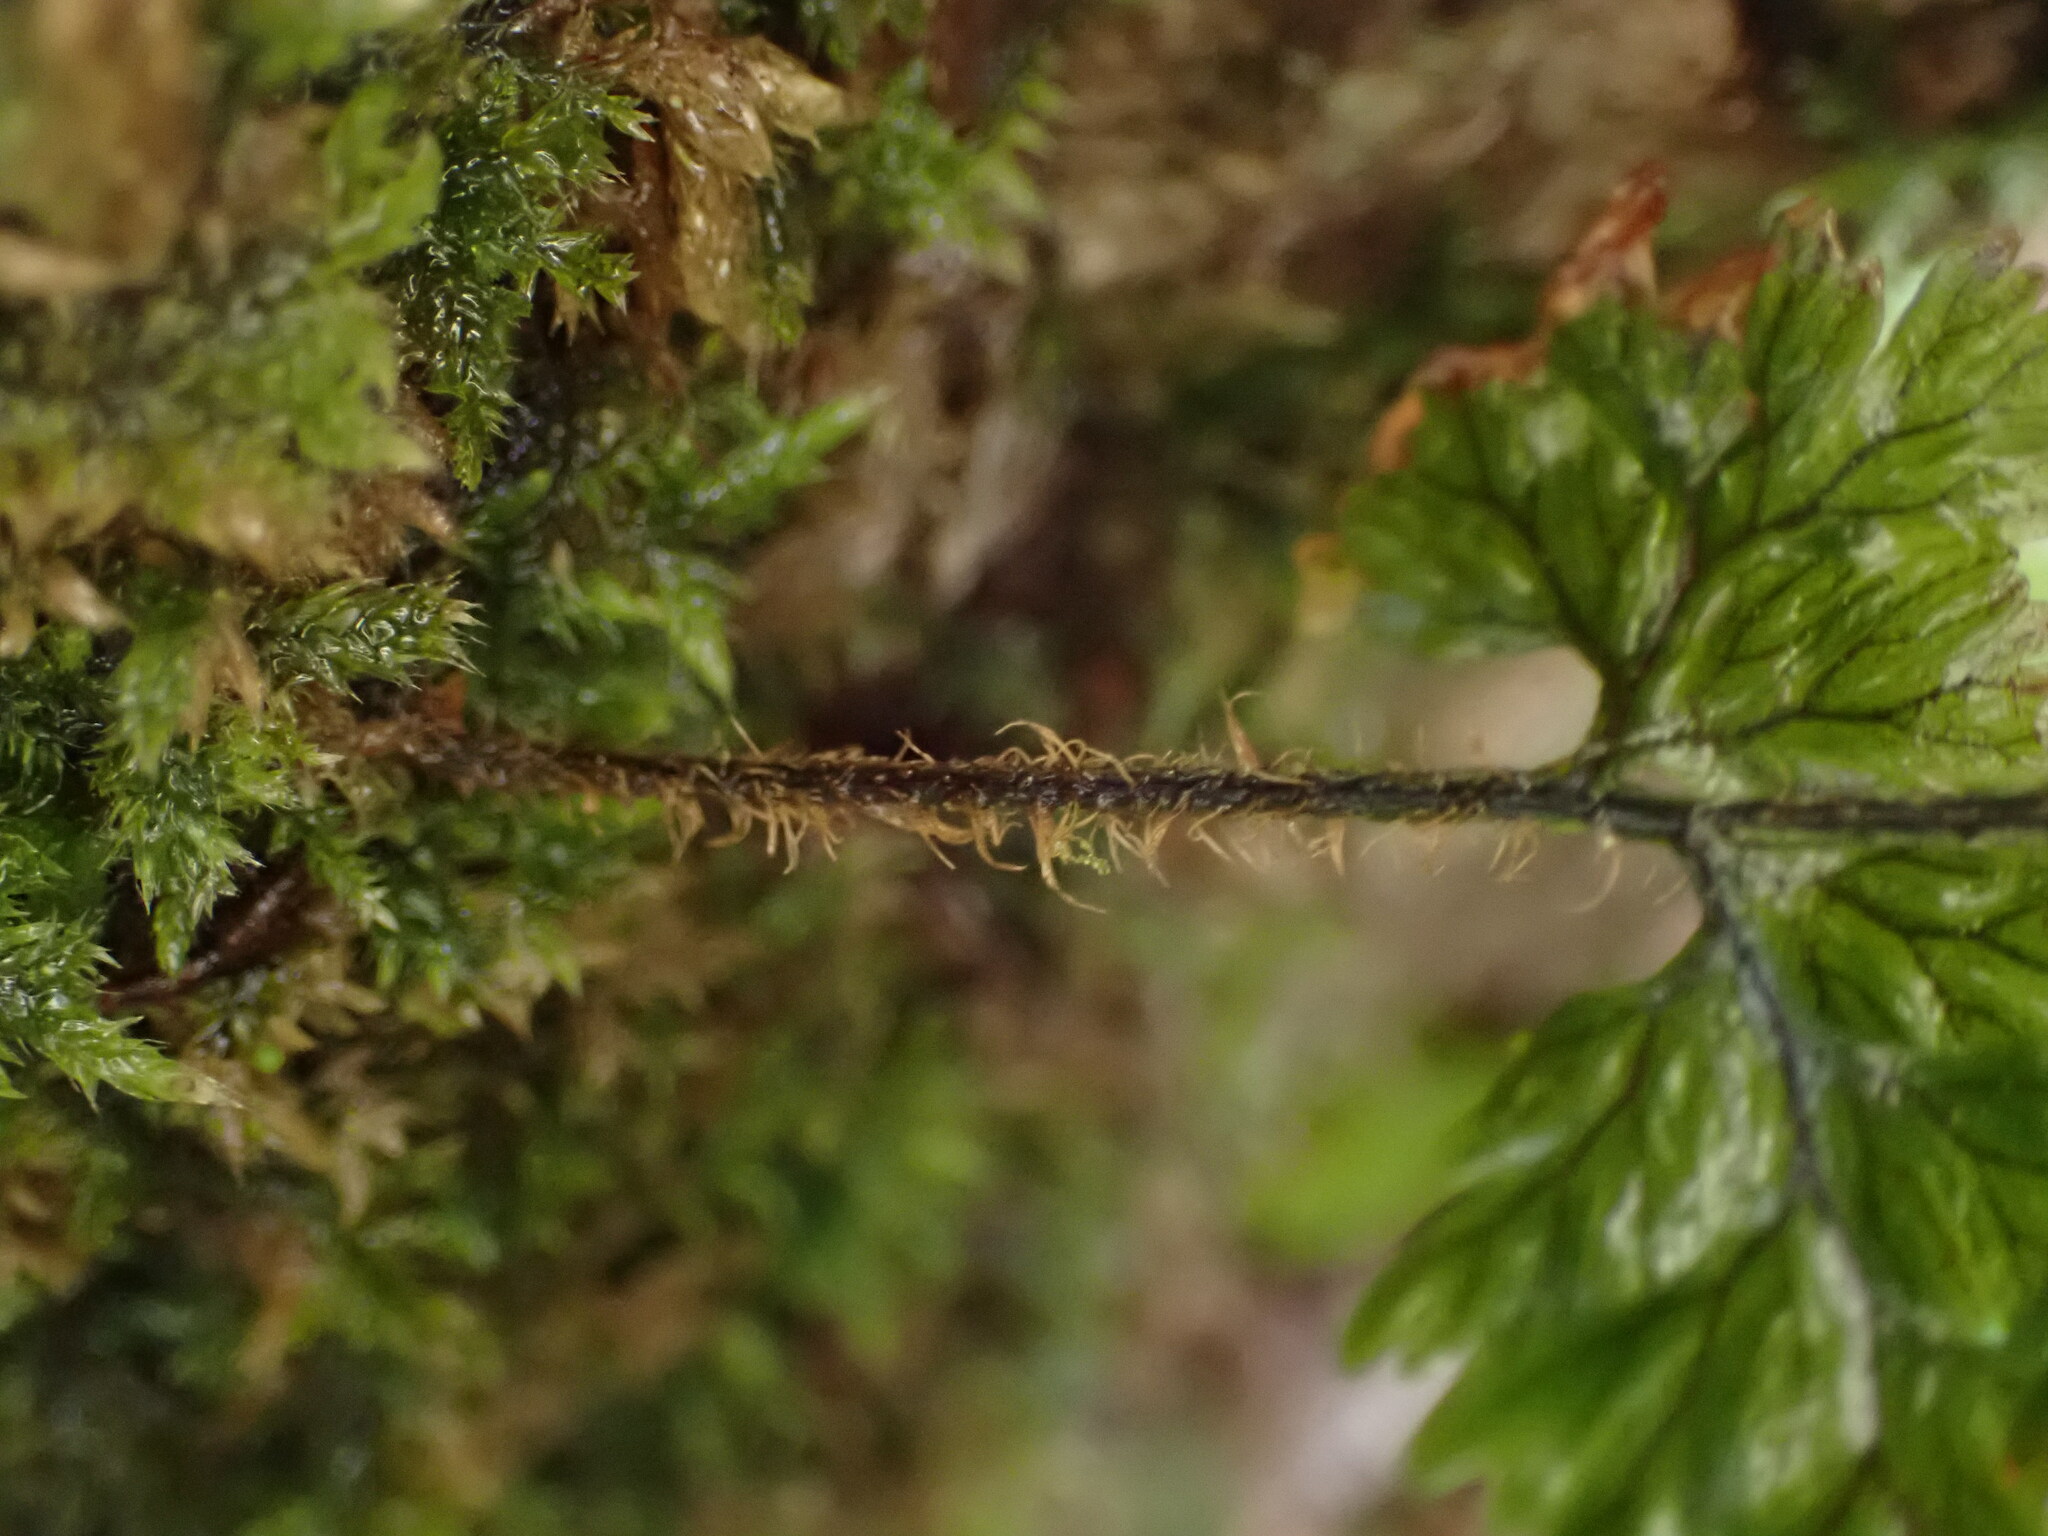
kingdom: Plantae
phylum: Tracheophyta
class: Polypodiopsida
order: Hymenophyllales
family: Hymenophyllaceae
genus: Hymenophyllum
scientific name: Hymenophyllum scabrum
